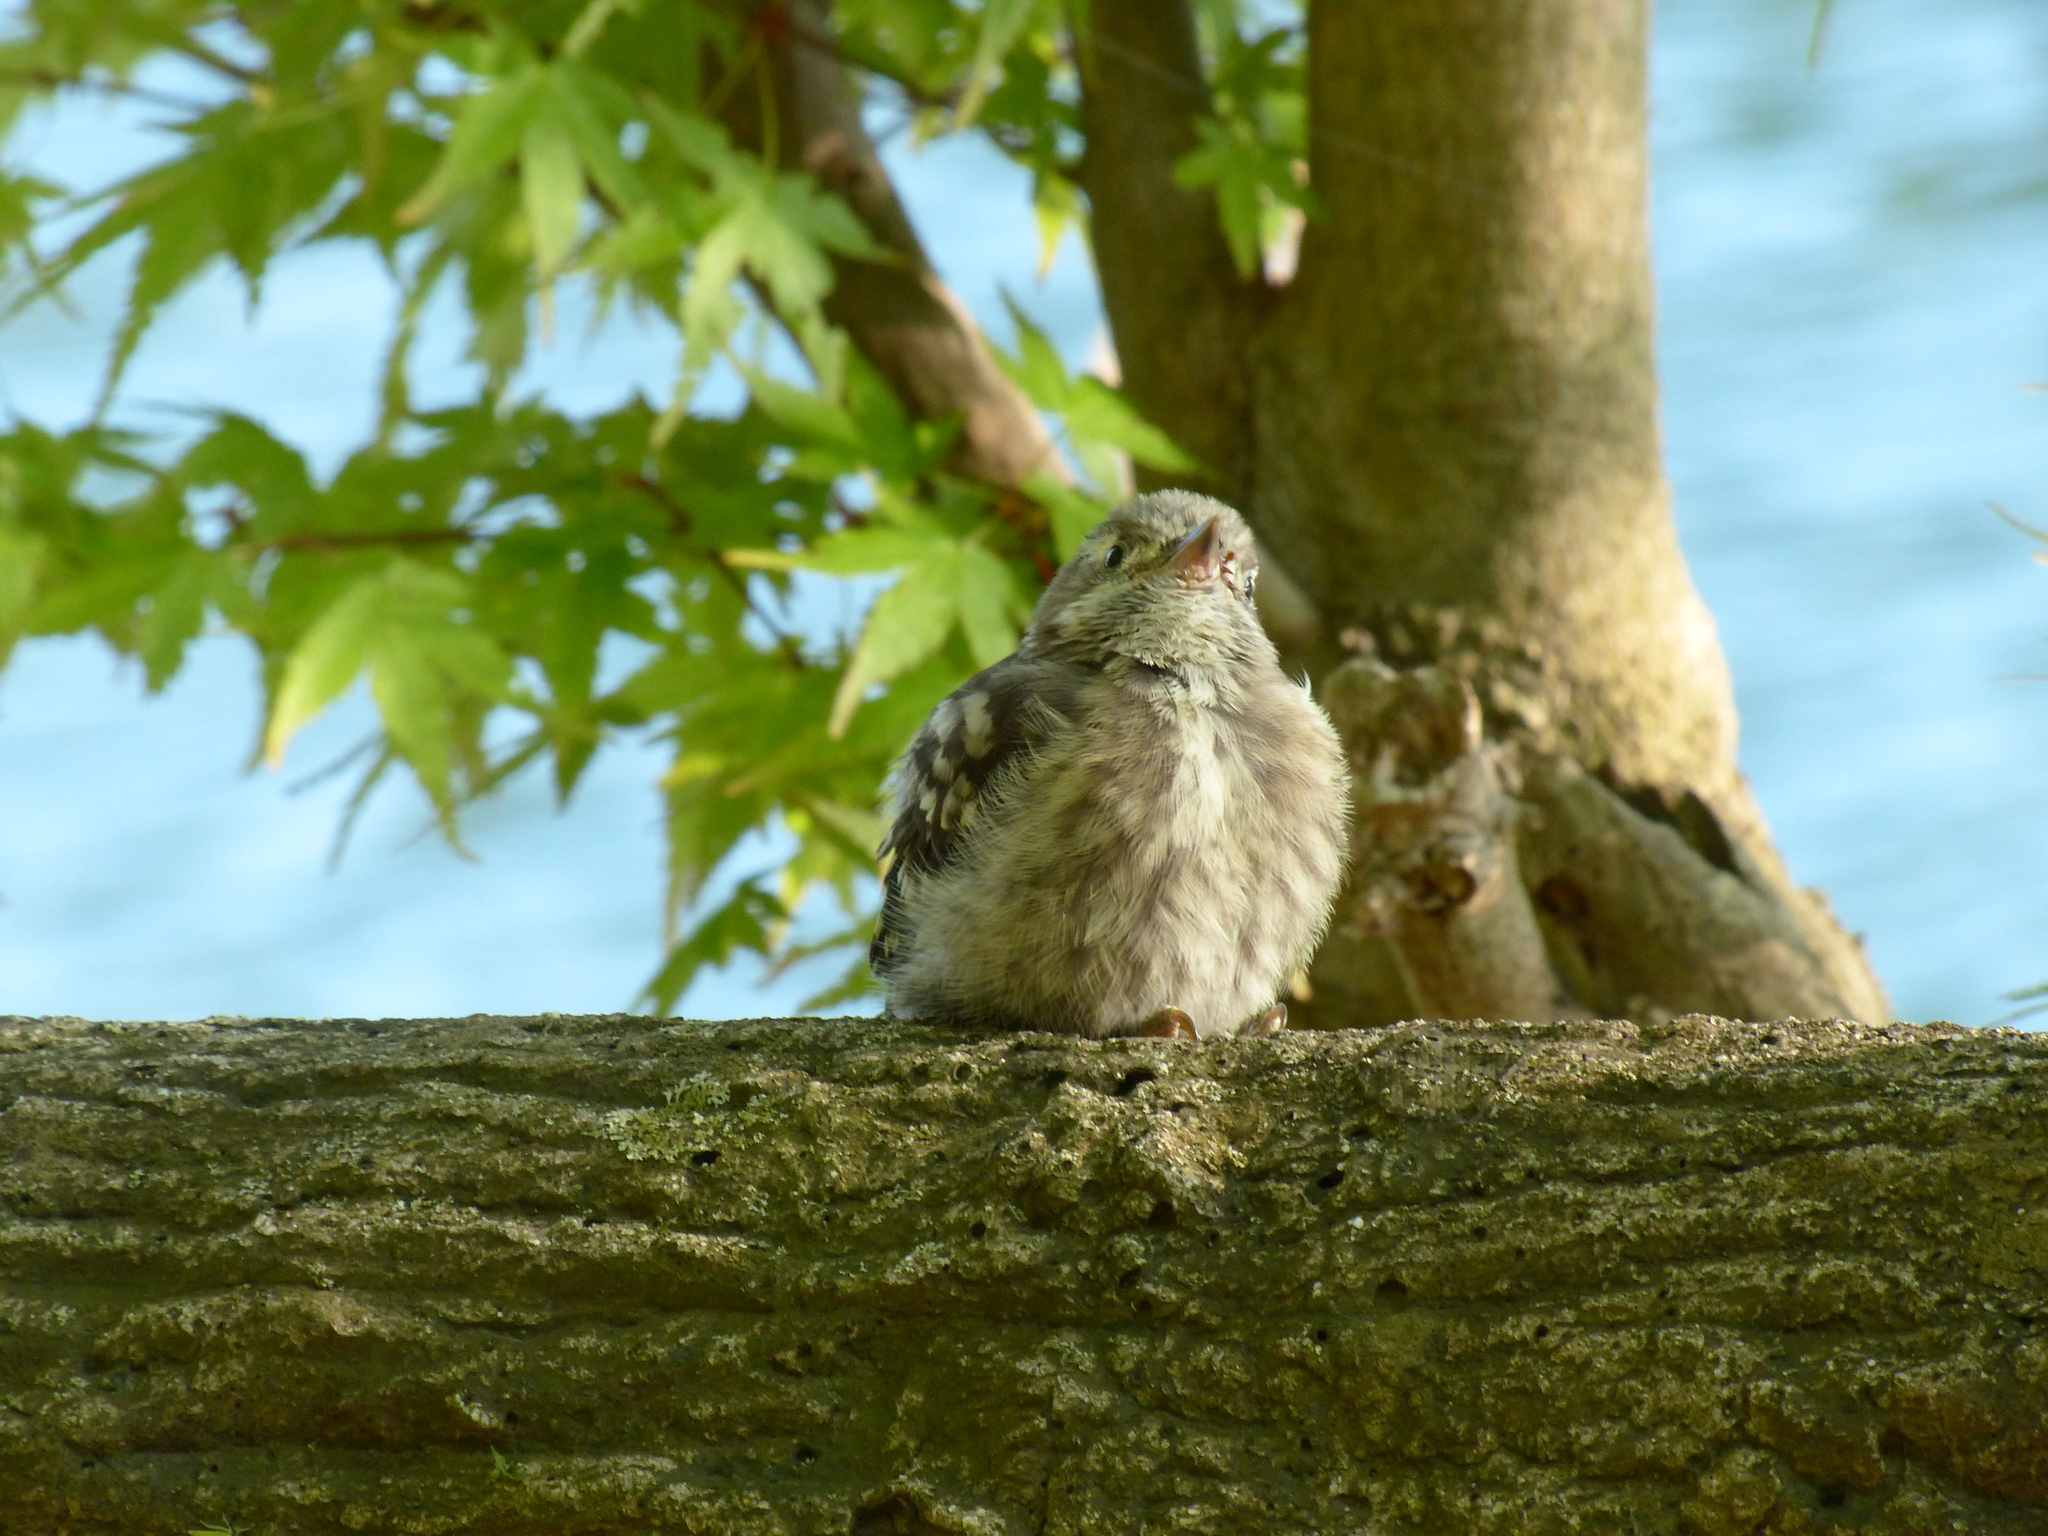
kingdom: Animalia
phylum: Chordata
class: Aves
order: Piciformes
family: Picidae
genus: Yungipicus
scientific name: Yungipicus kizuki
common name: Japanese pygmy woodpecker
